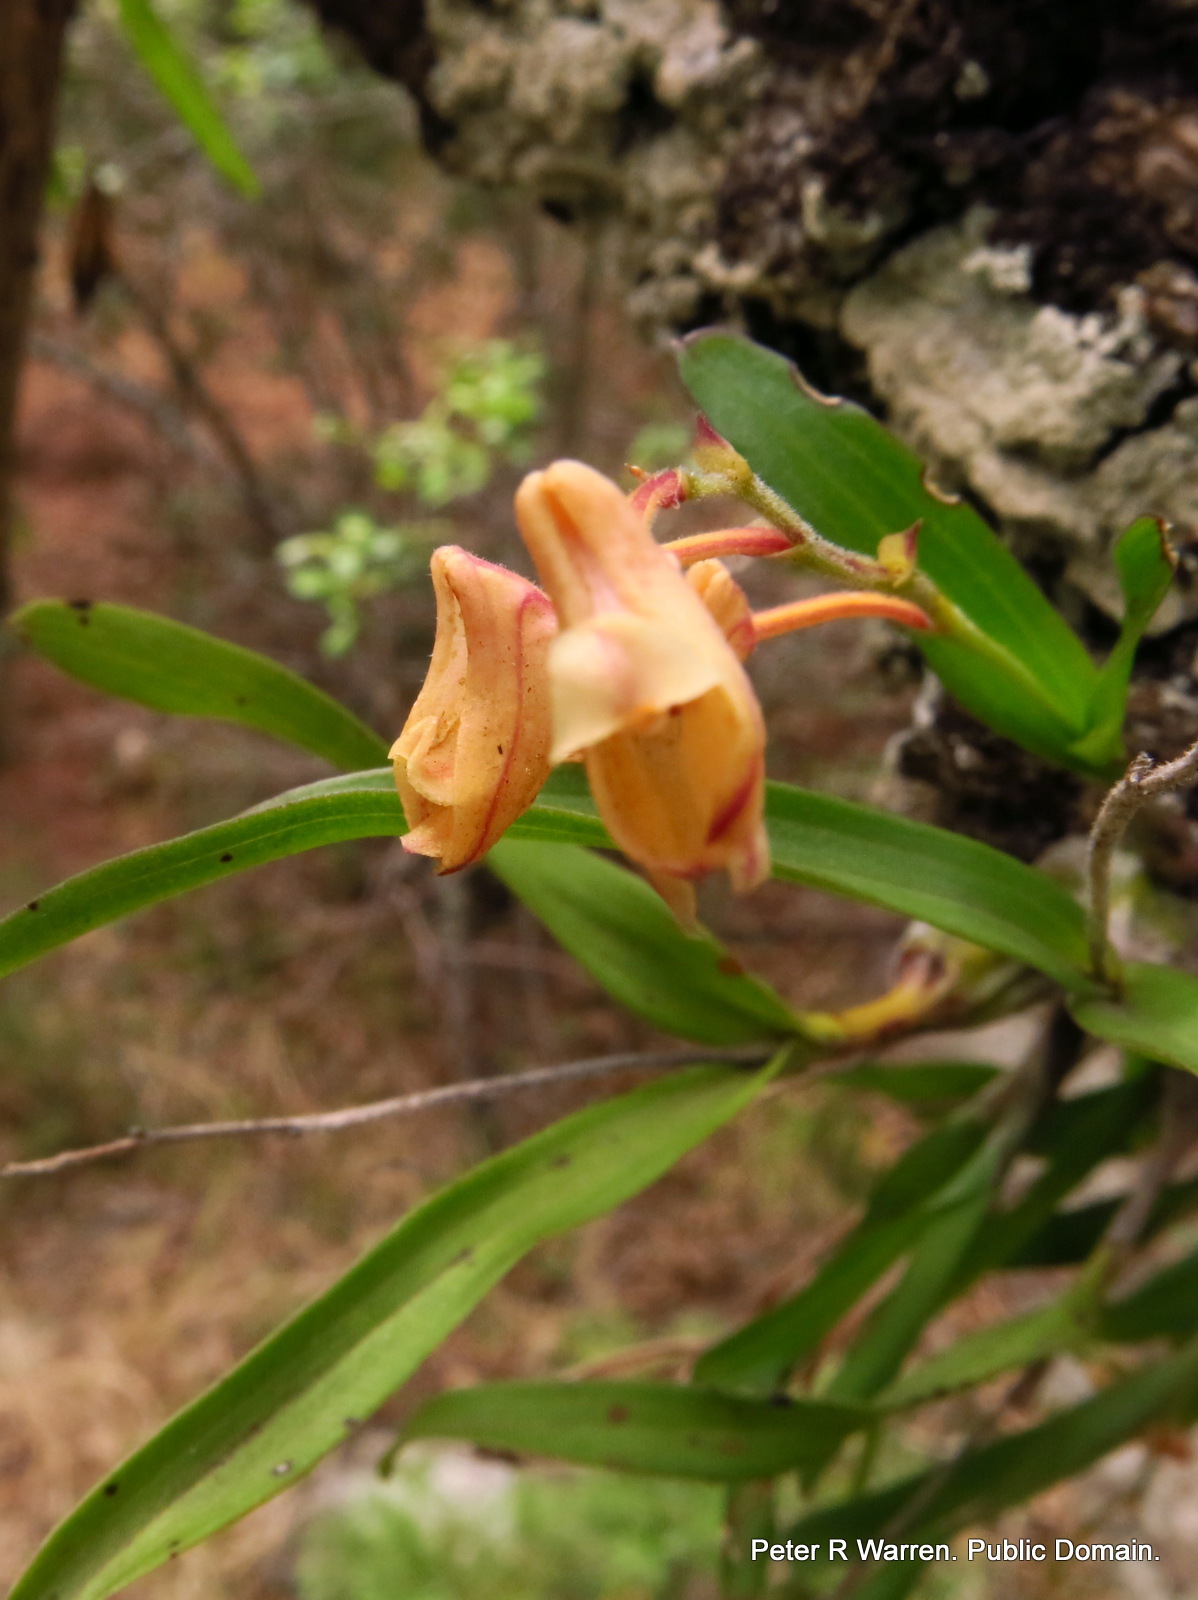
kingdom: Plantae
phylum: Tracheophyta
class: Liliopsida
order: Asparagales
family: Orchidaceae
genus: Polystachya
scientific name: Polystachya ottoniana
